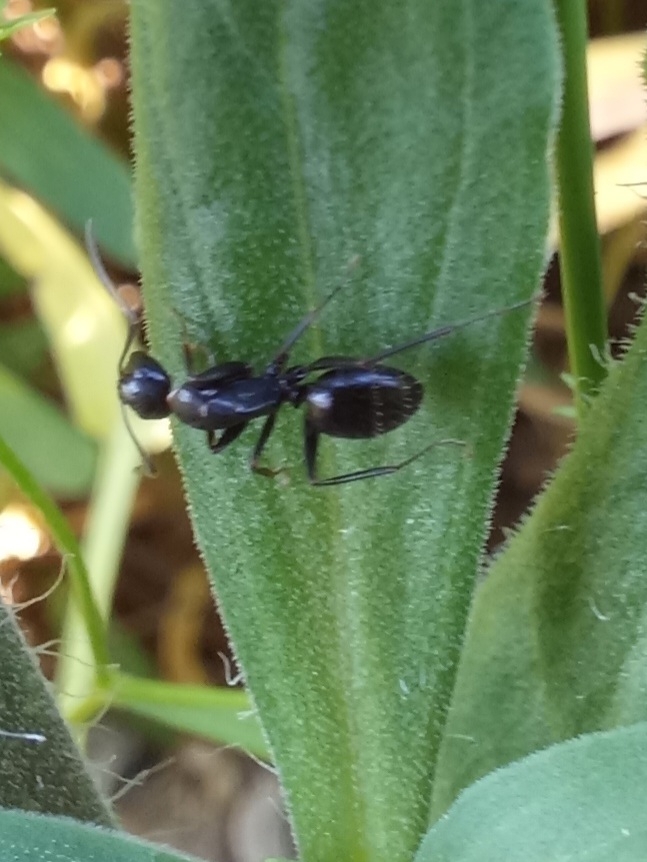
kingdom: Animalia
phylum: Arthropoda
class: Insecta
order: Hymenoptera
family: Formicidae
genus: Camponotus
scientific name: Camponotus aethiops
